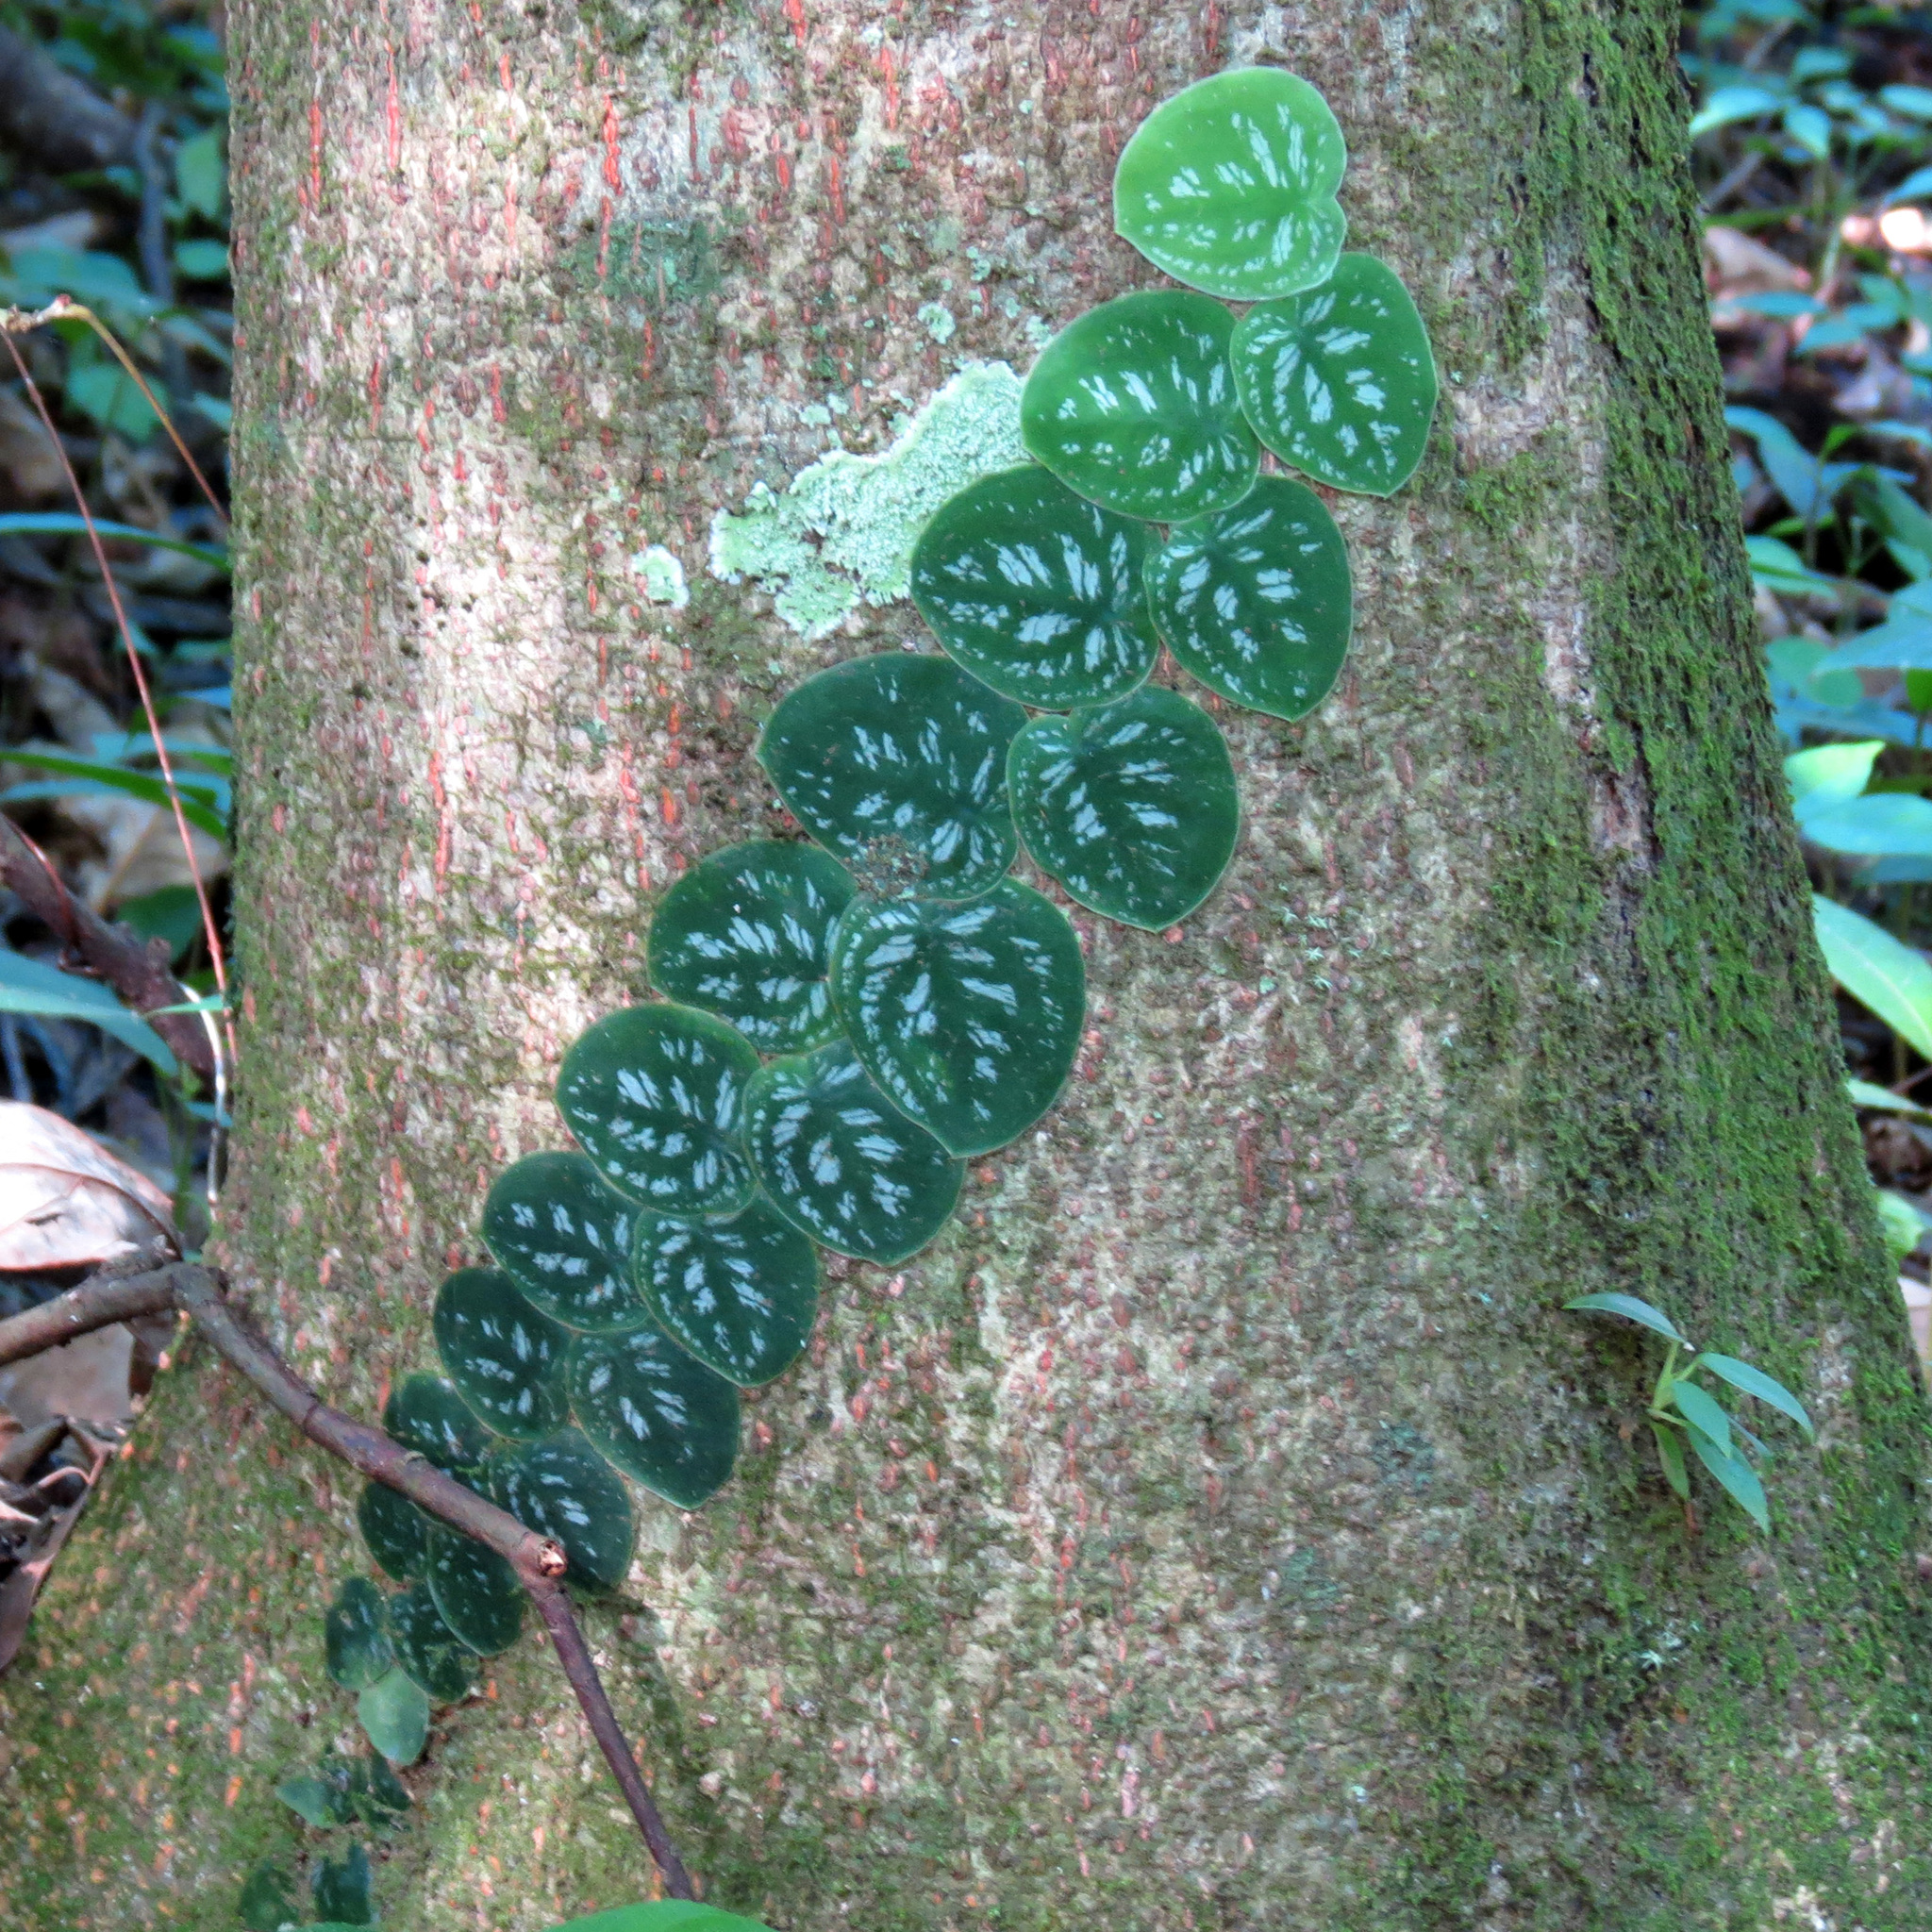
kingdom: Plantae
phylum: Tracheophyta
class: Liliopsida
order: Alismatales
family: Araceae
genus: Monstera
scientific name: Monstera tuberculata
